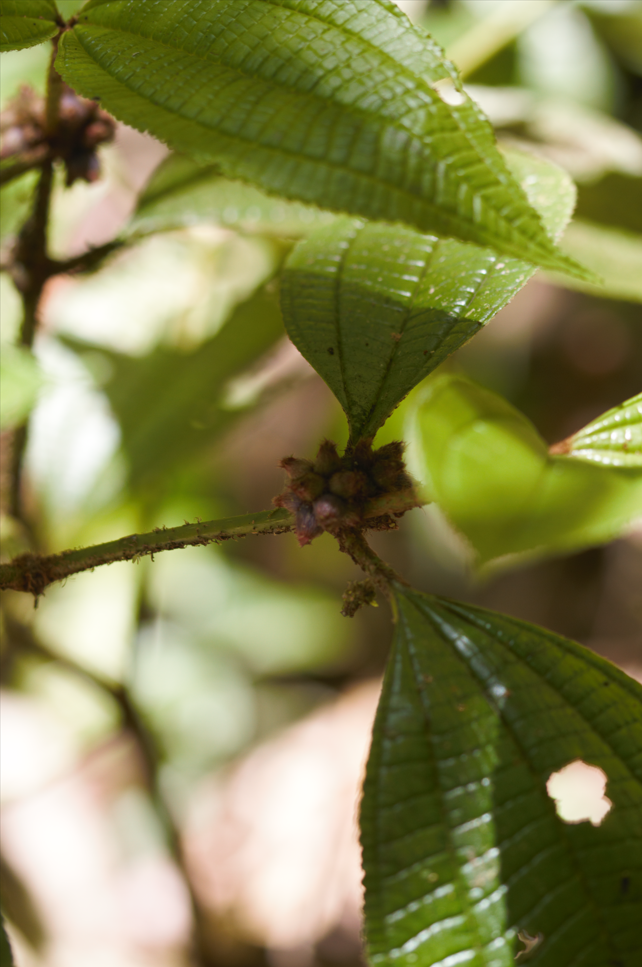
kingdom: Plantae
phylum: Tracheophyta
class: Magnoliopsida
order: Myrtales
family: Melastomataceae
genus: Miconia
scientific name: Miconia conglomerata
